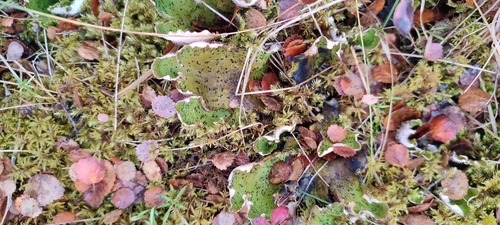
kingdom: Fungi
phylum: Ascomycota
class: Lecanoromycetes
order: Peltigerales
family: Peltigeraceae
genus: Peltigera
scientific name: Peltigera aphthosa
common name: Common freckle pelt lichen
